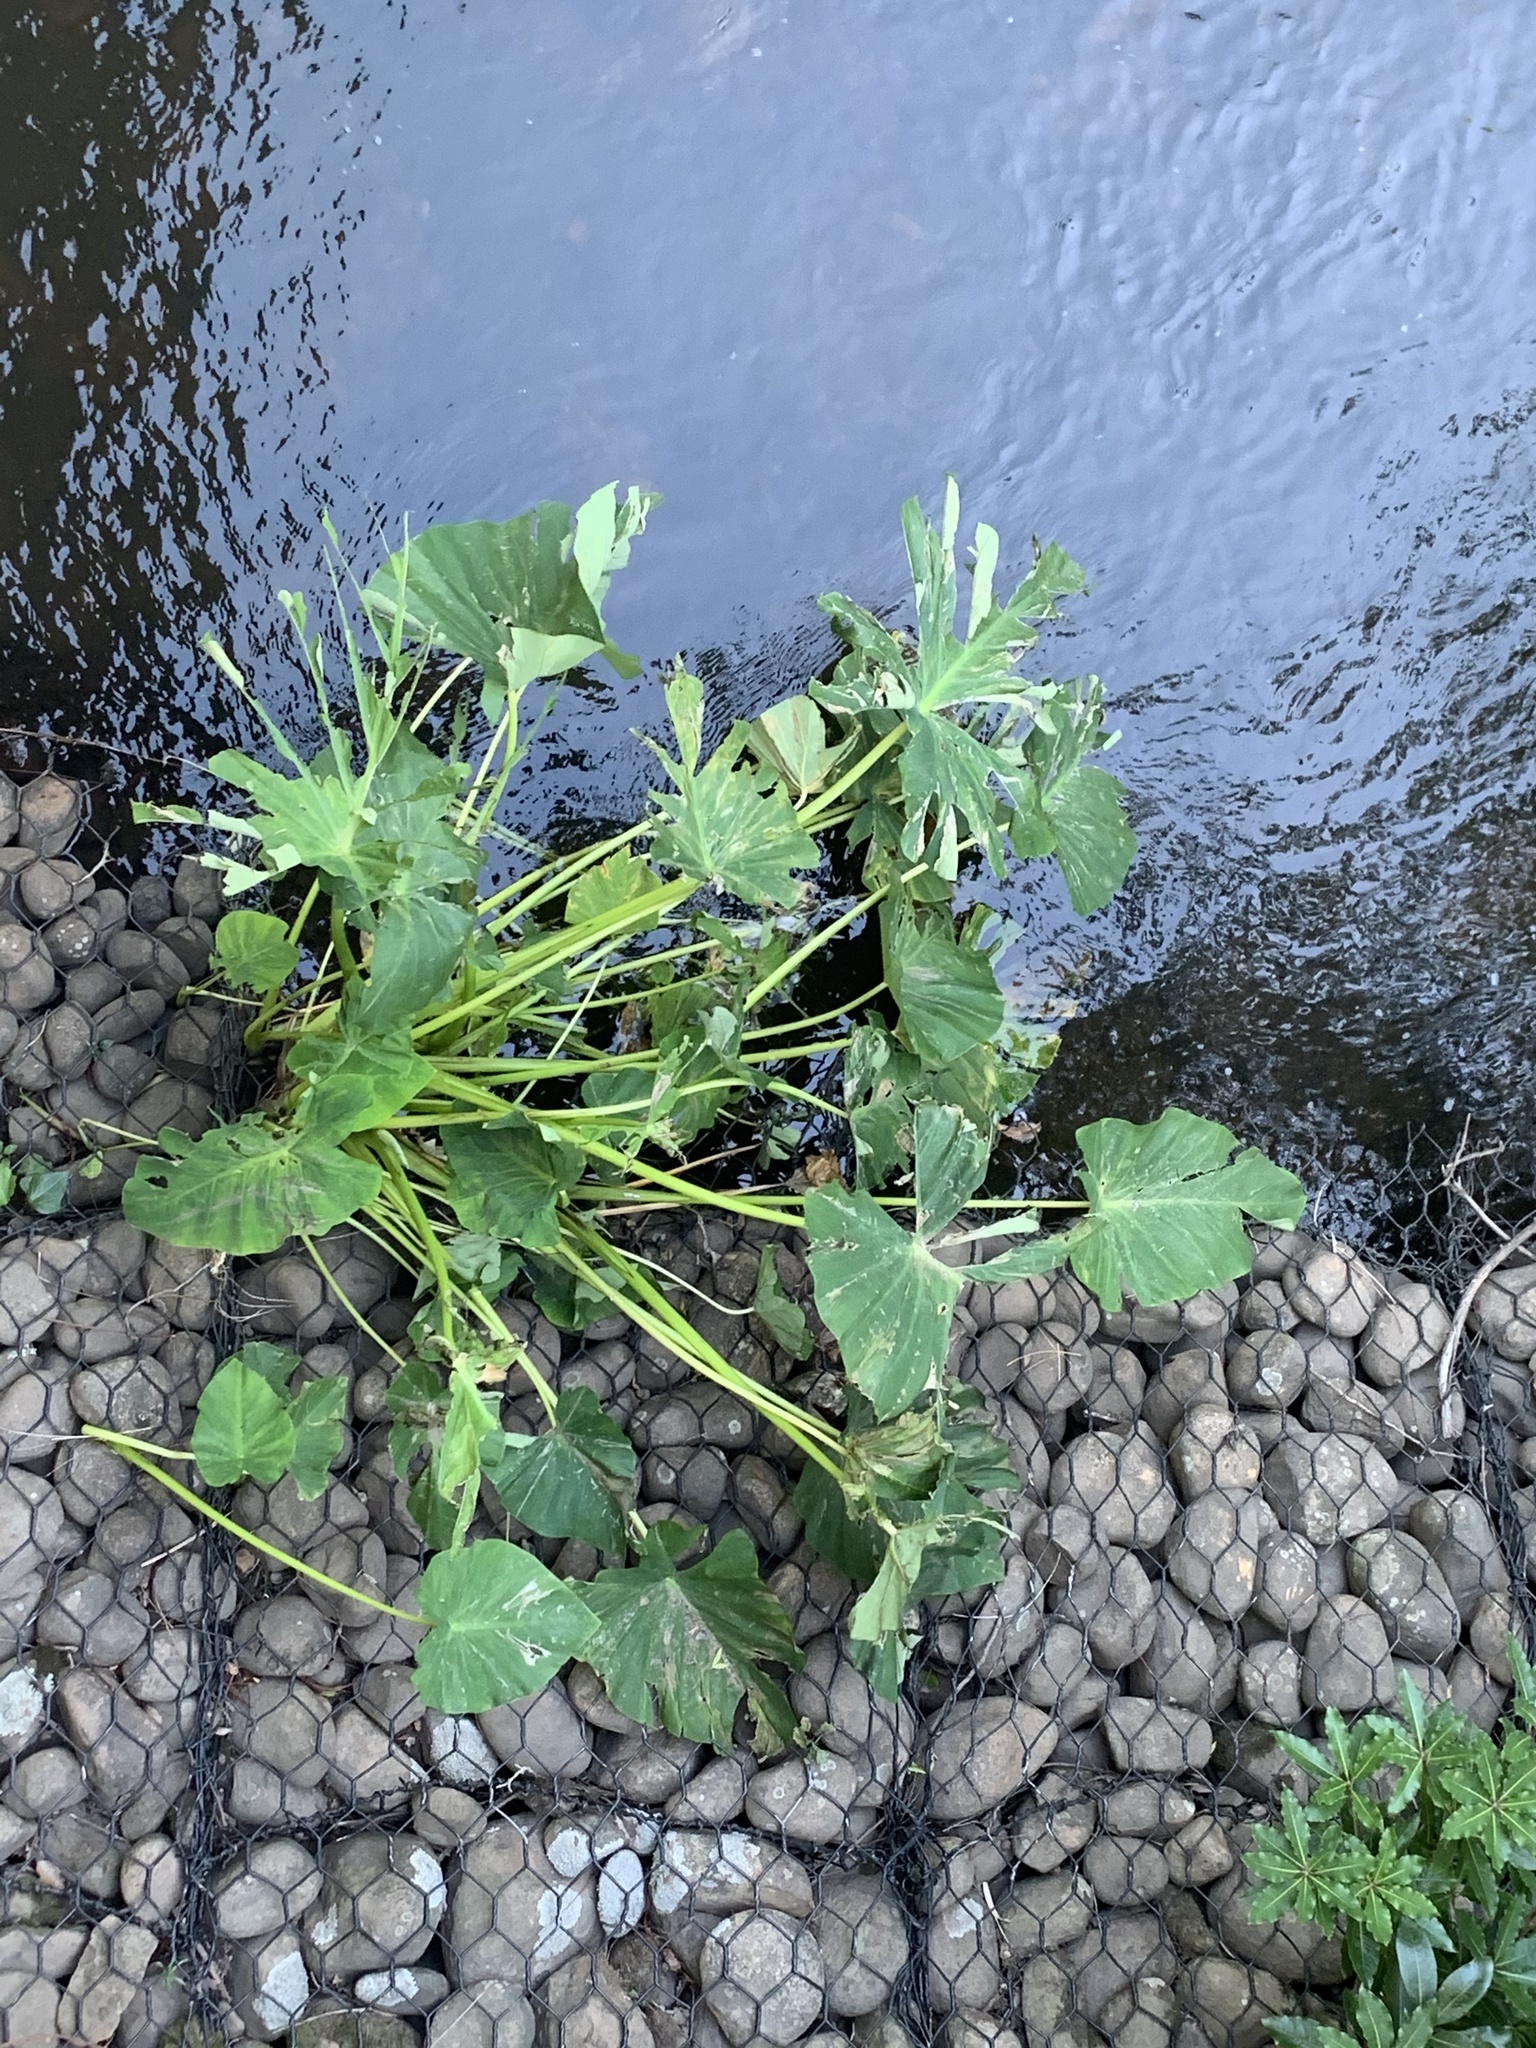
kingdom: Plantae
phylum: Tracheophyta
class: Liliopsida
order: Alismatales
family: Araceae
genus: Colocasia
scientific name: Colocasia esculenta
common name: Taro
